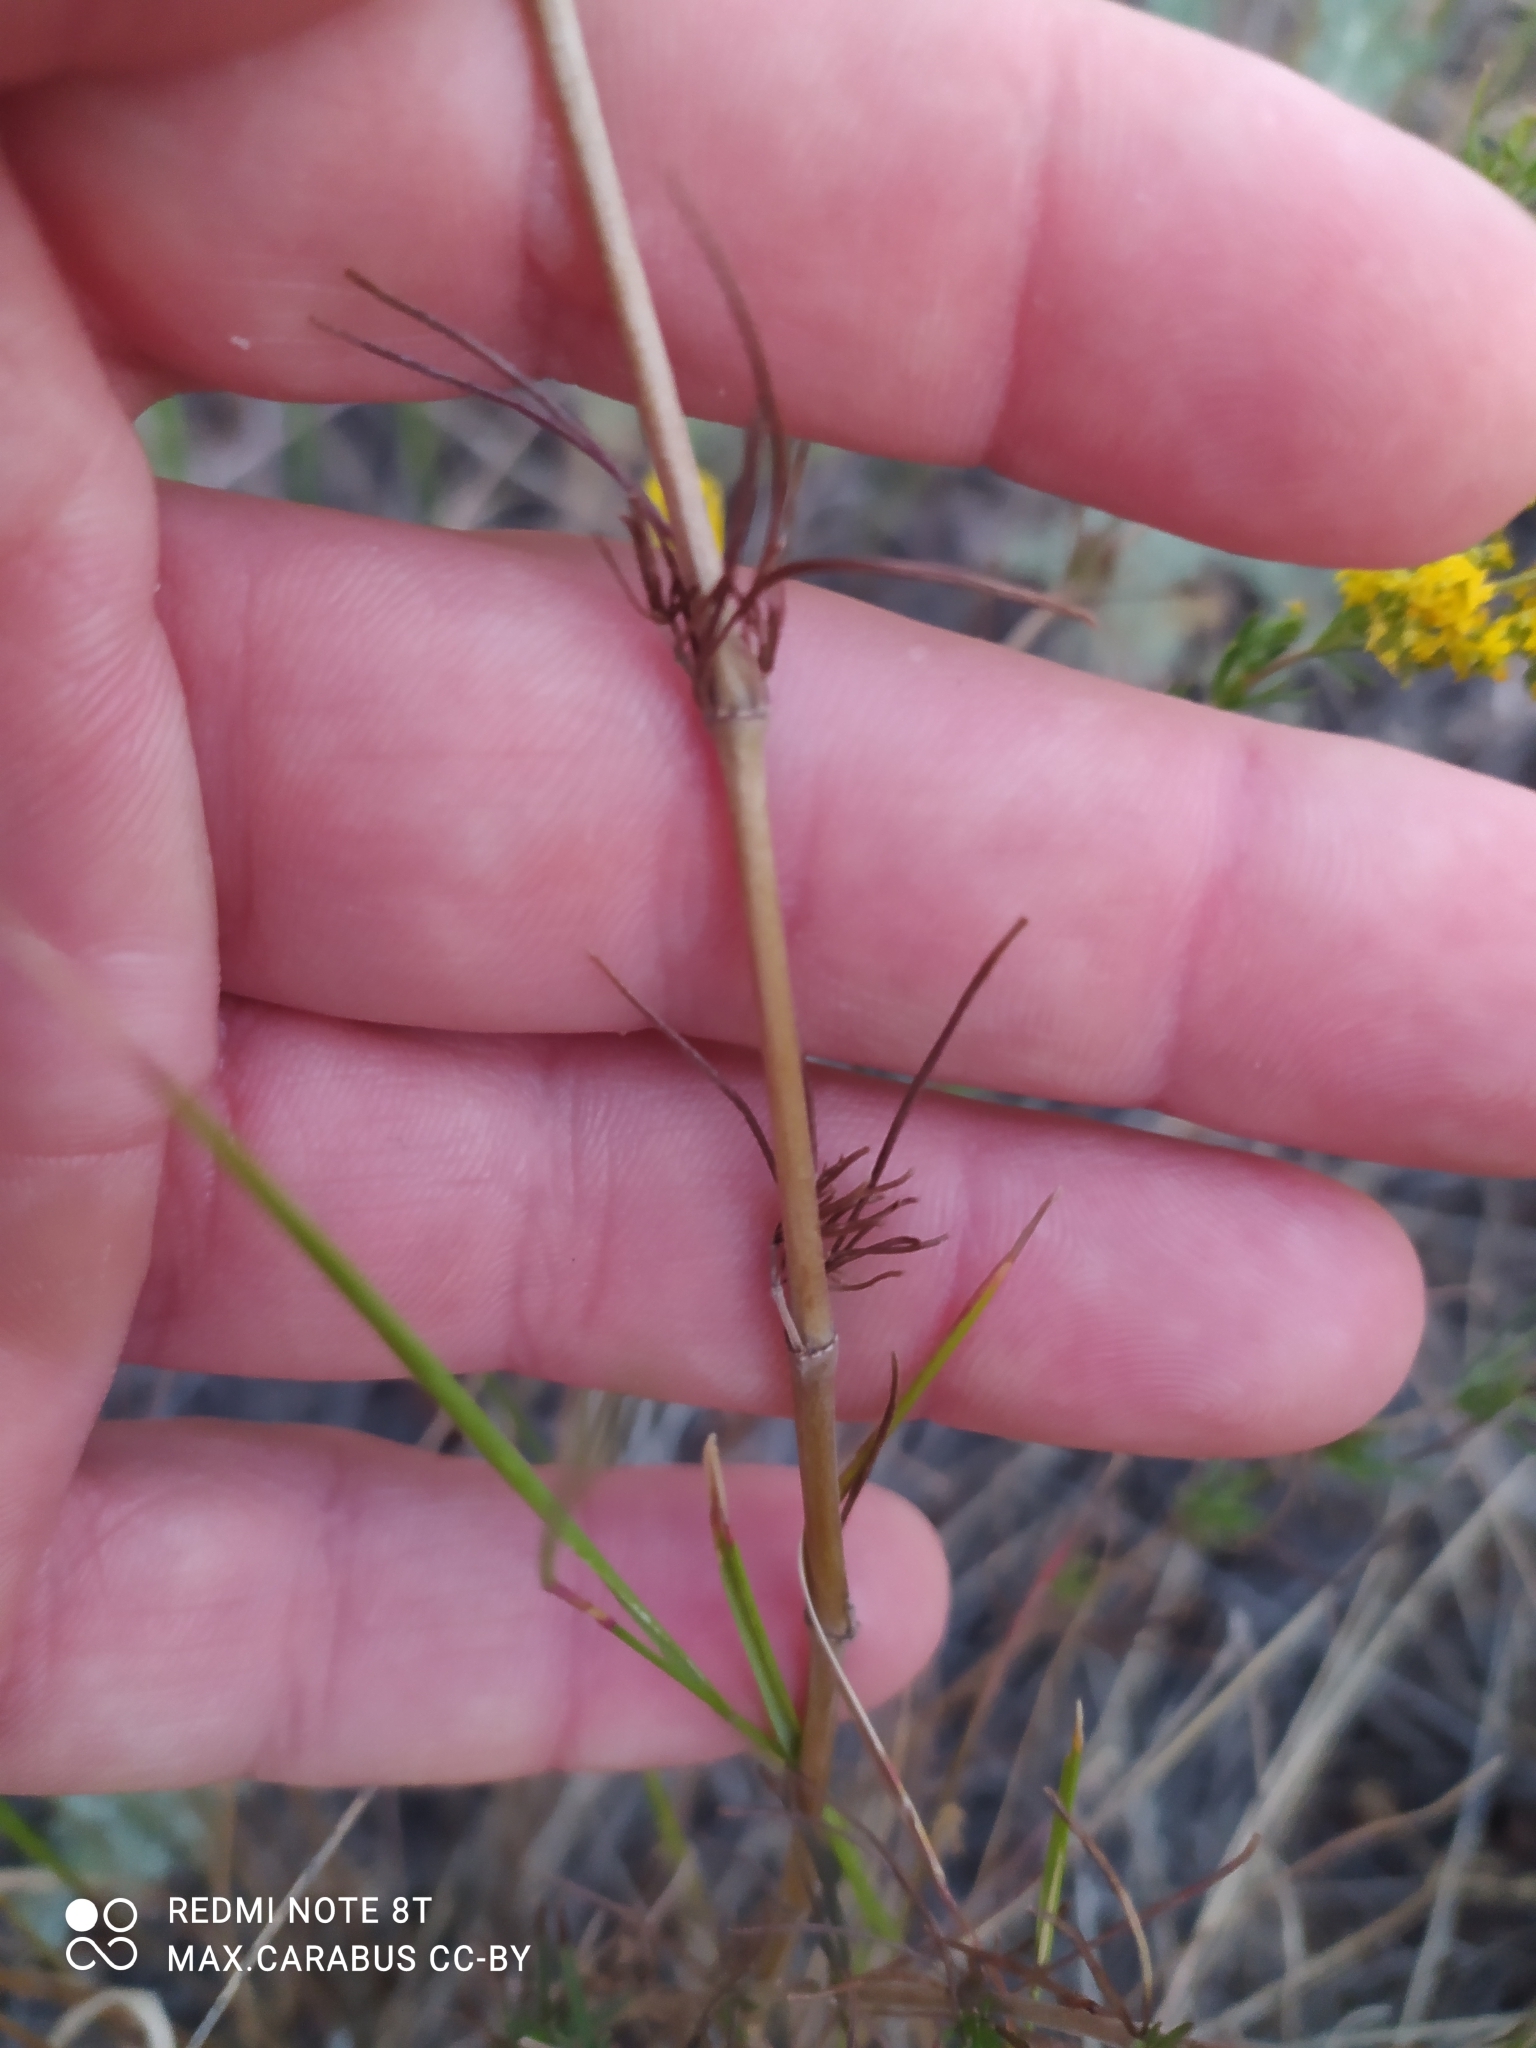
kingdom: Plantae
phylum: Tracheophyta
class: Magnoliopsida
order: Gentianales
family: Rubiaceae
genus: Galium
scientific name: Galium verum
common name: Lady's bedstraw
